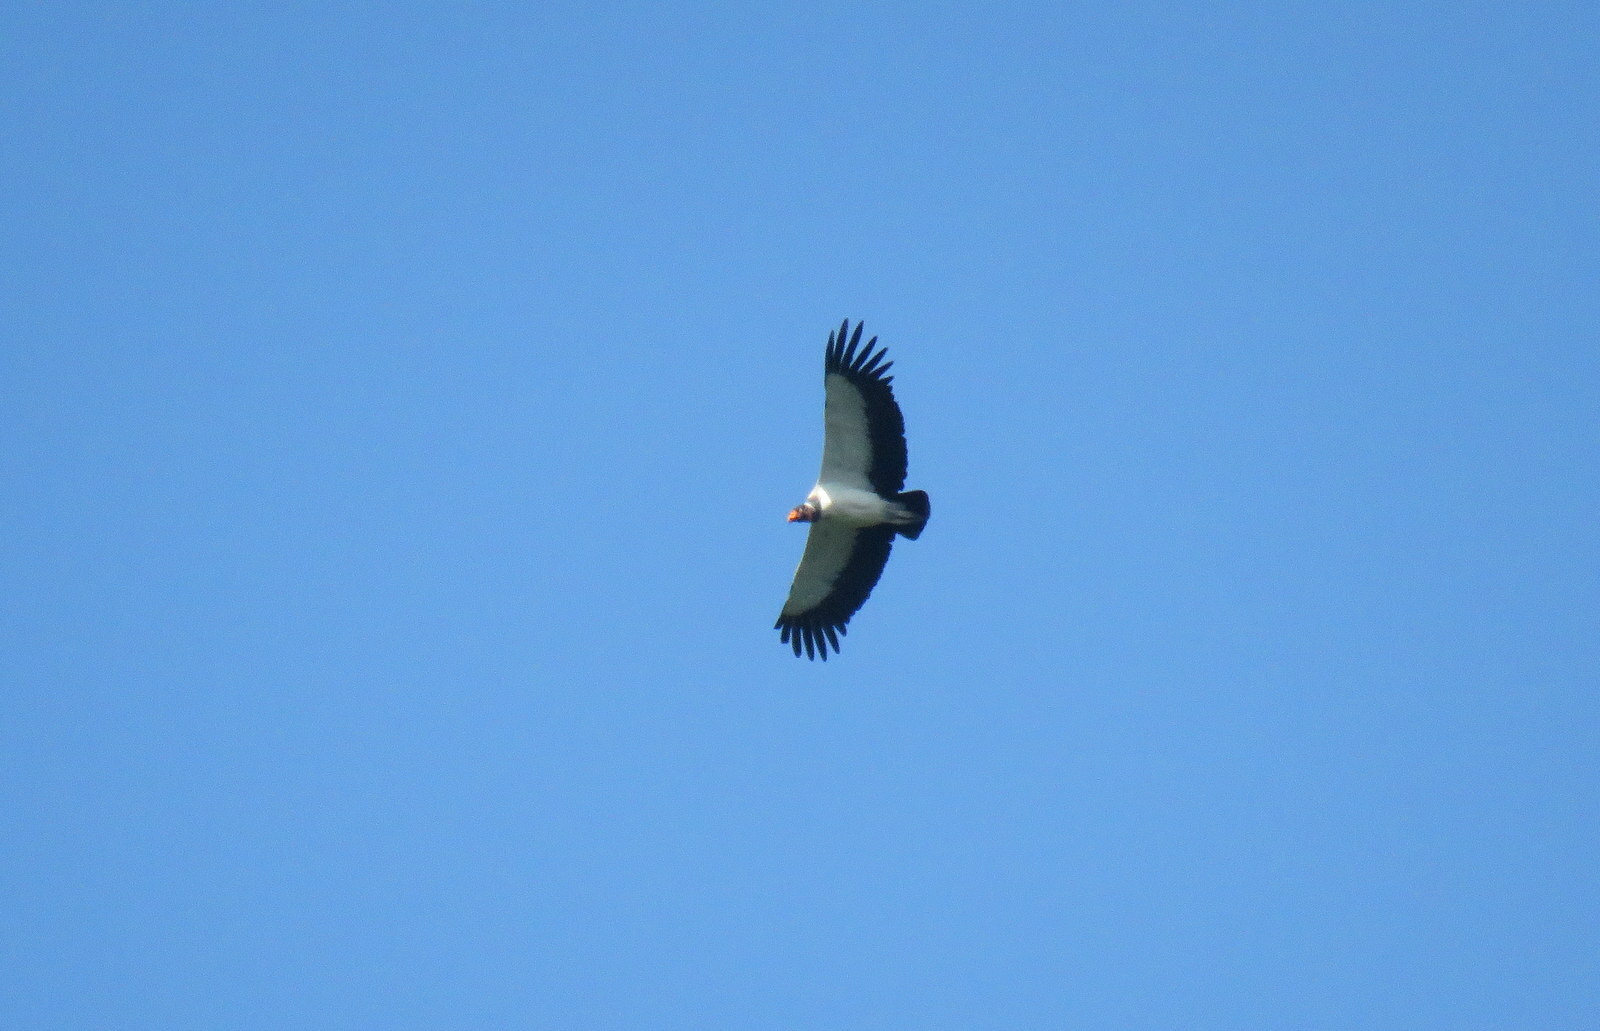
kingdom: Animalia
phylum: Chordata
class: Aves
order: Accipitriformes
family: Cathartidae
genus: Sarcoramphus
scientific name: Sarcoramphus papa
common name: King vulture
